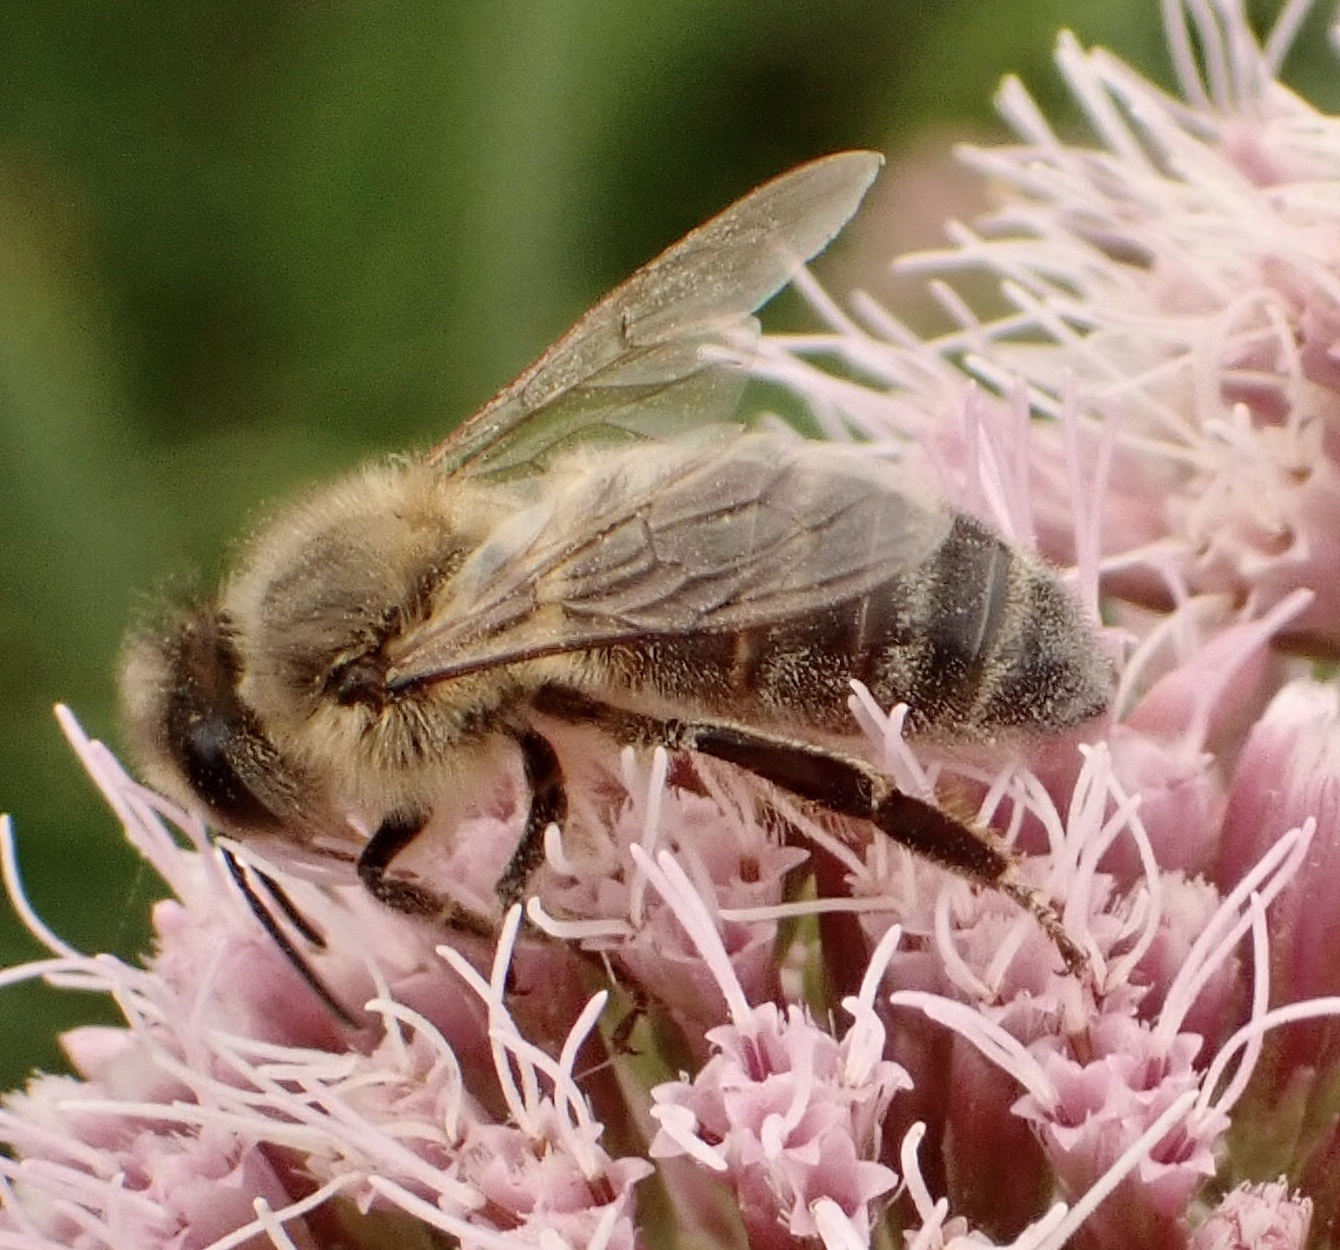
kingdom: Animalia
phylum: Arthropoda
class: Insecta
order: Hymenoptera
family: Apidae
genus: Apis
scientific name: Apis mellifera
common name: Honey bee
